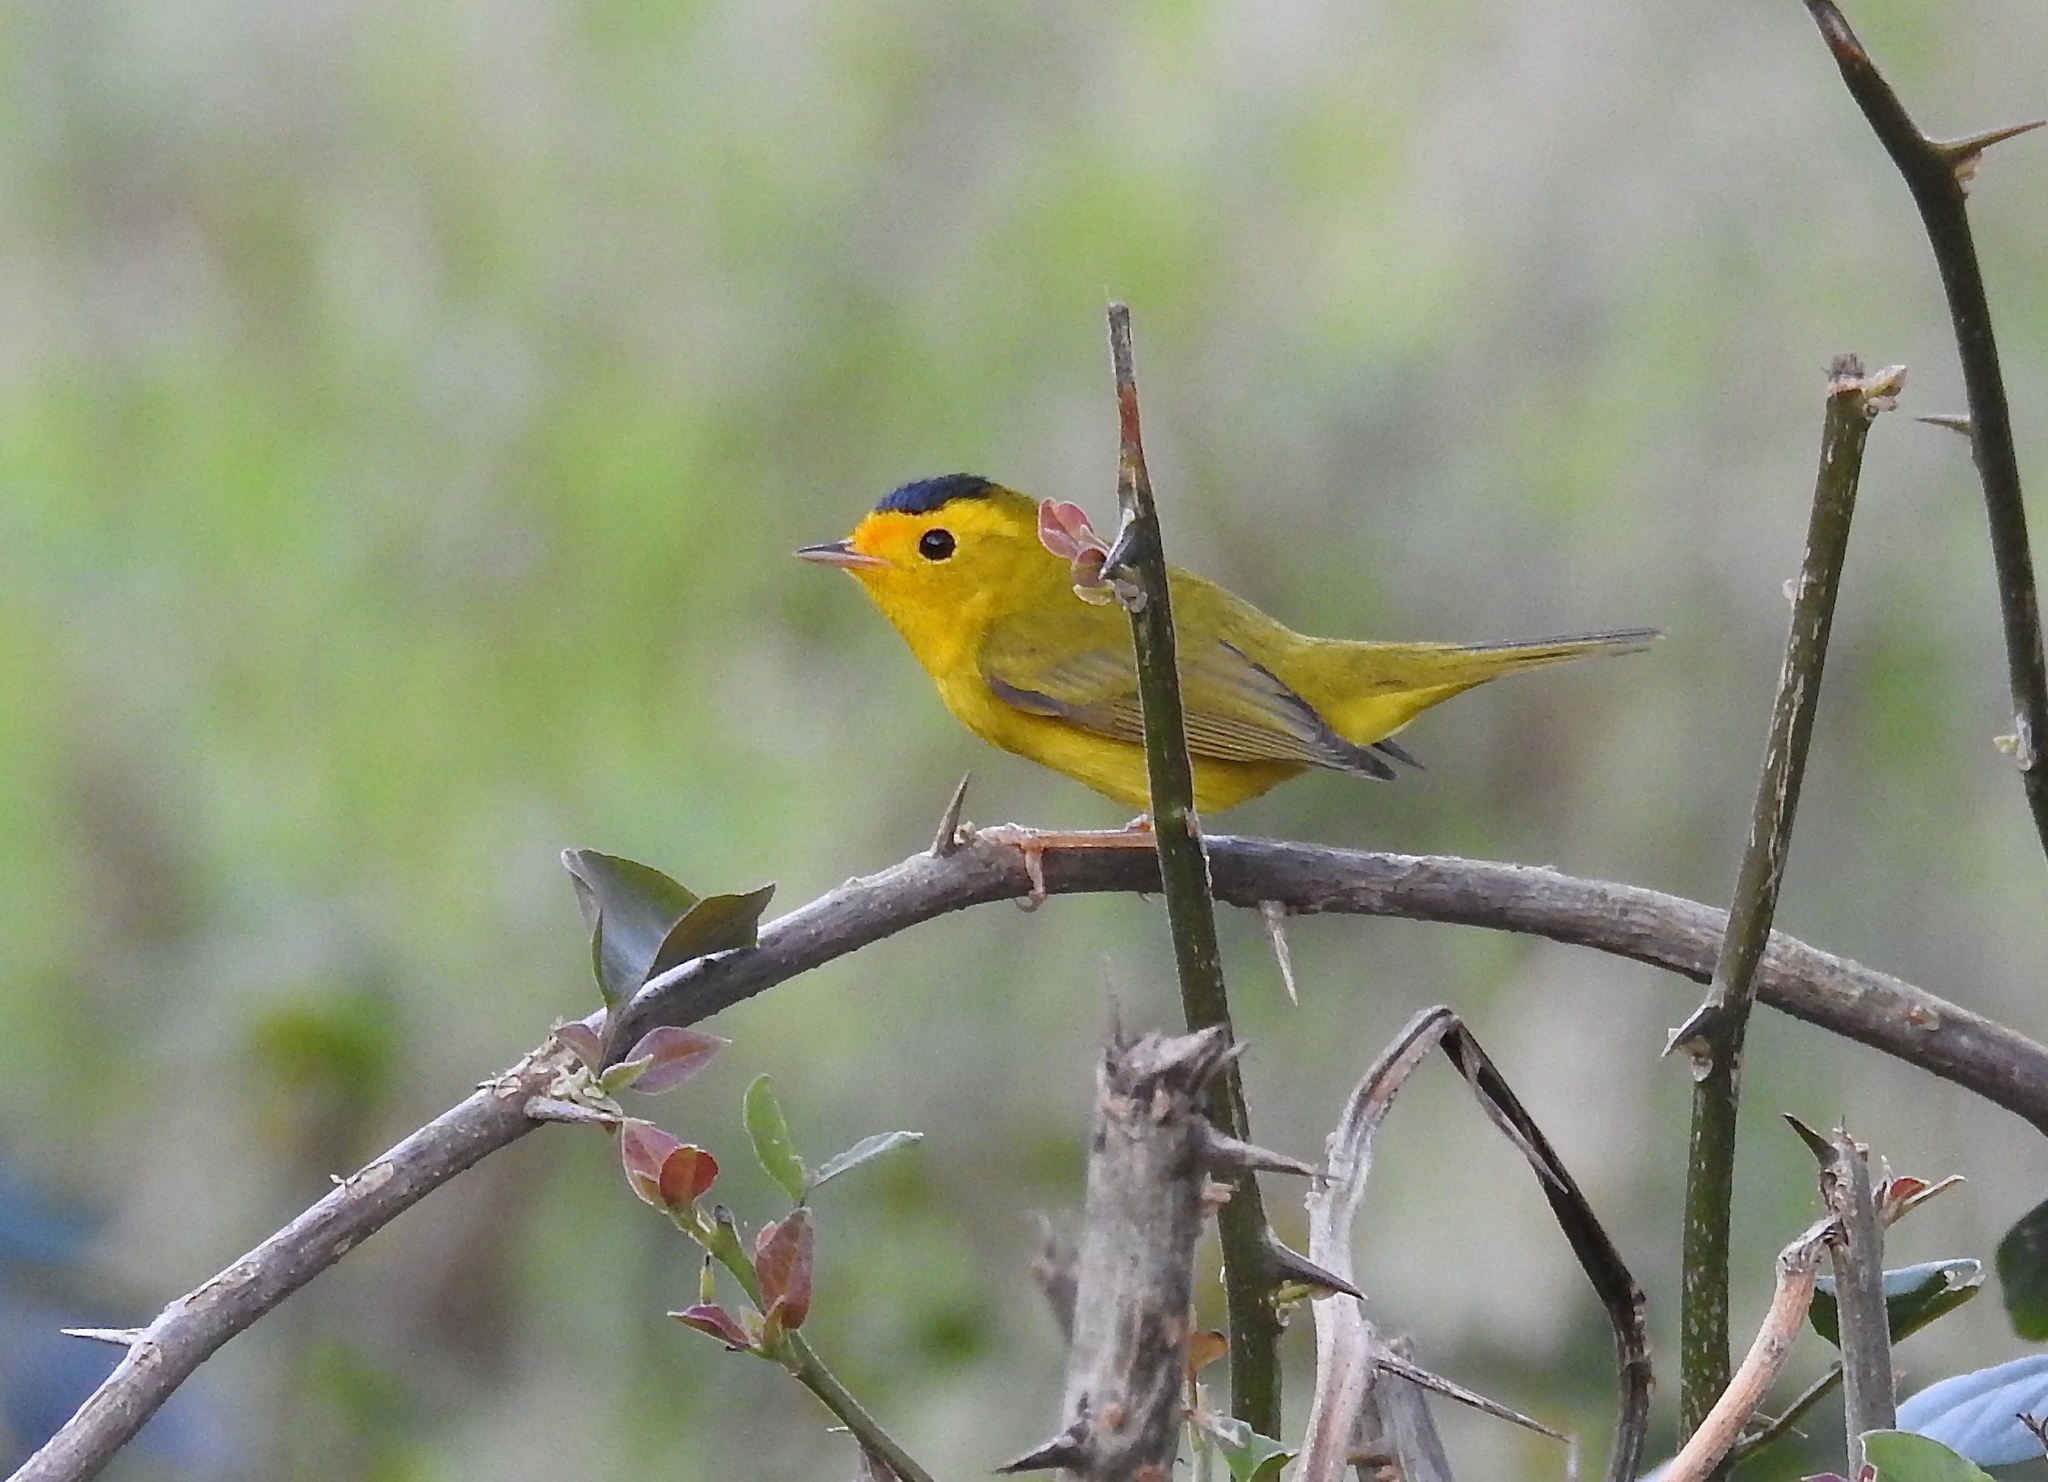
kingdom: Animalia
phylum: Chordata
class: Aves
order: Passeriformes
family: Parulidae
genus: Cardellina
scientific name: Cardellina pusilla
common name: Wilson's warbler
